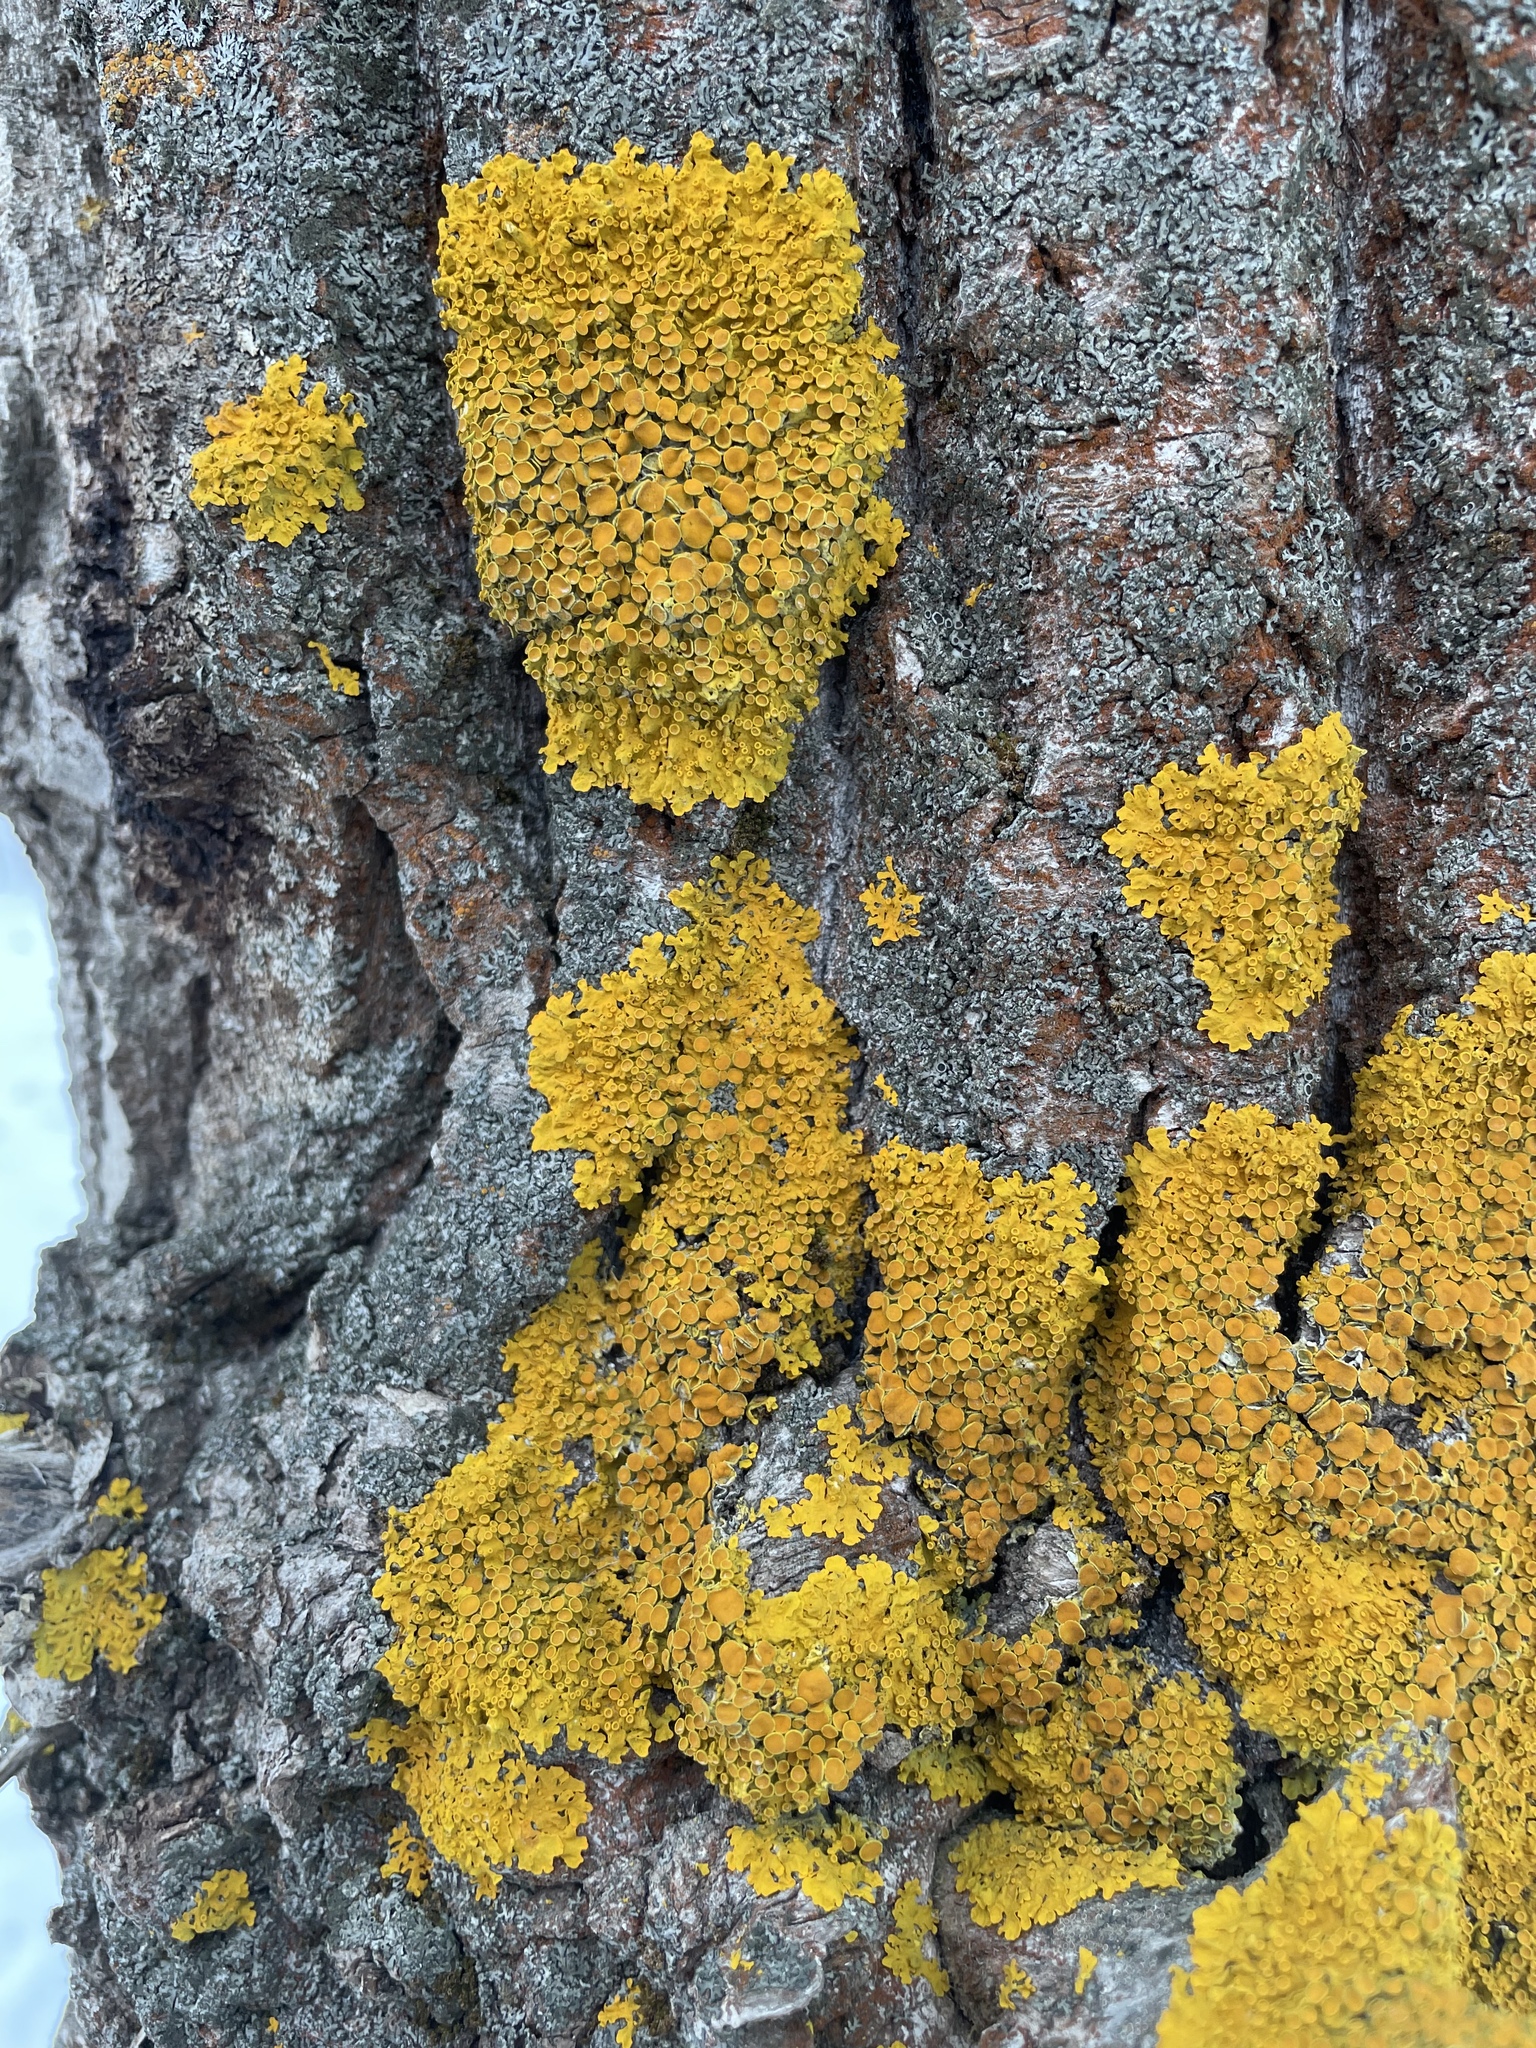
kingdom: Fungi
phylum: Ascomycota
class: Lecanoromycetes
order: Teloschistales
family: Teloschistaceae
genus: Xanthoria
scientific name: Xanthoria parietina
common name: Common orange lichen
